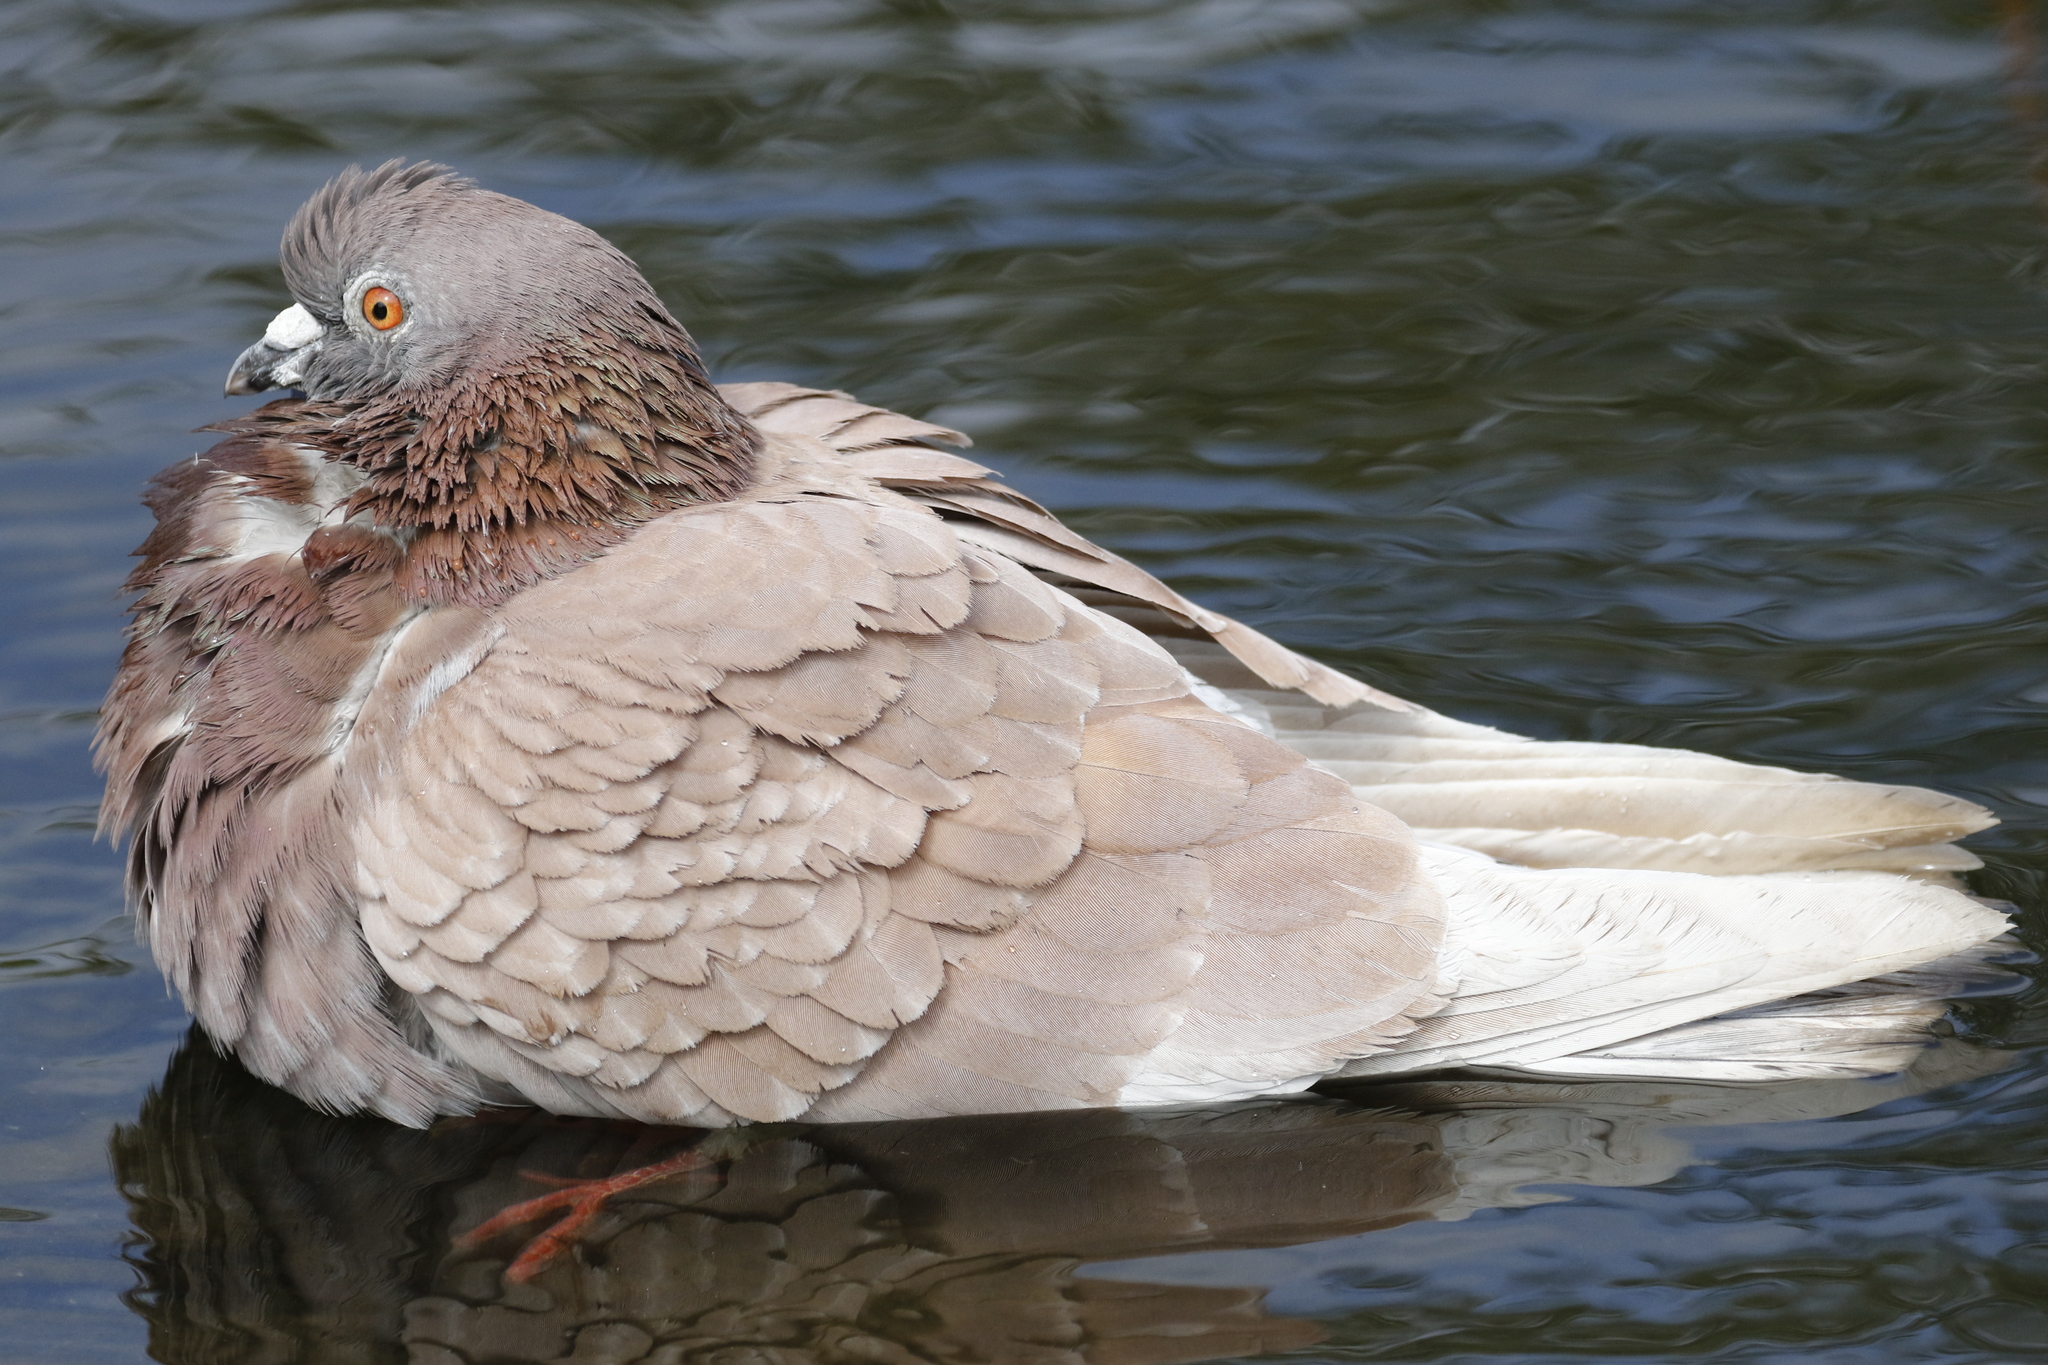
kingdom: Animalia
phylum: Chordata
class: Aves
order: Columbiformes
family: Columbidae
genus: Columba
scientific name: Columba livia
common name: Rock pigeon
